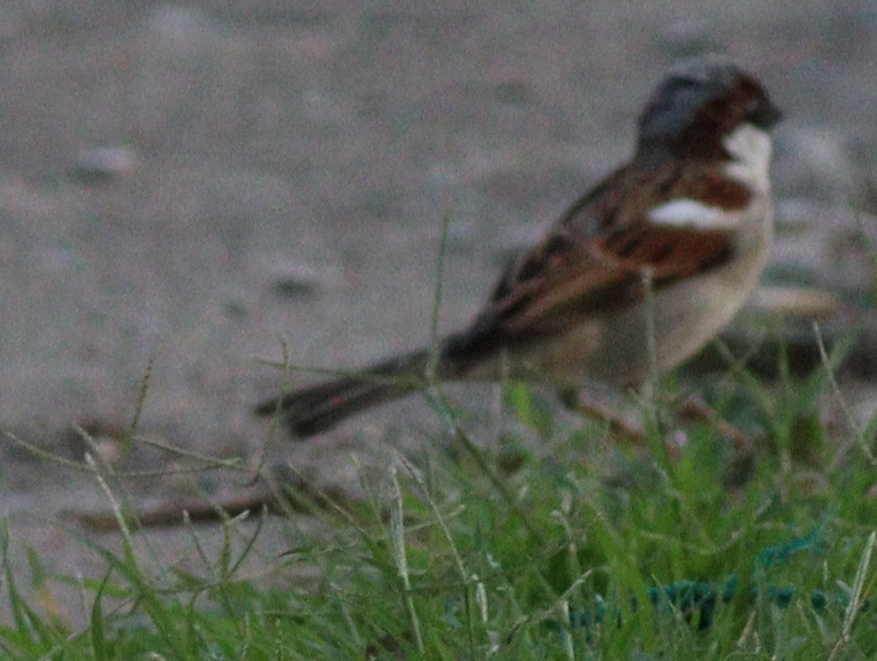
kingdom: Animalia
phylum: Chordata
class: Aves
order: Passeriformes
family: Passeridae
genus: Passer
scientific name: Passer domesticus
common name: House sparrow
